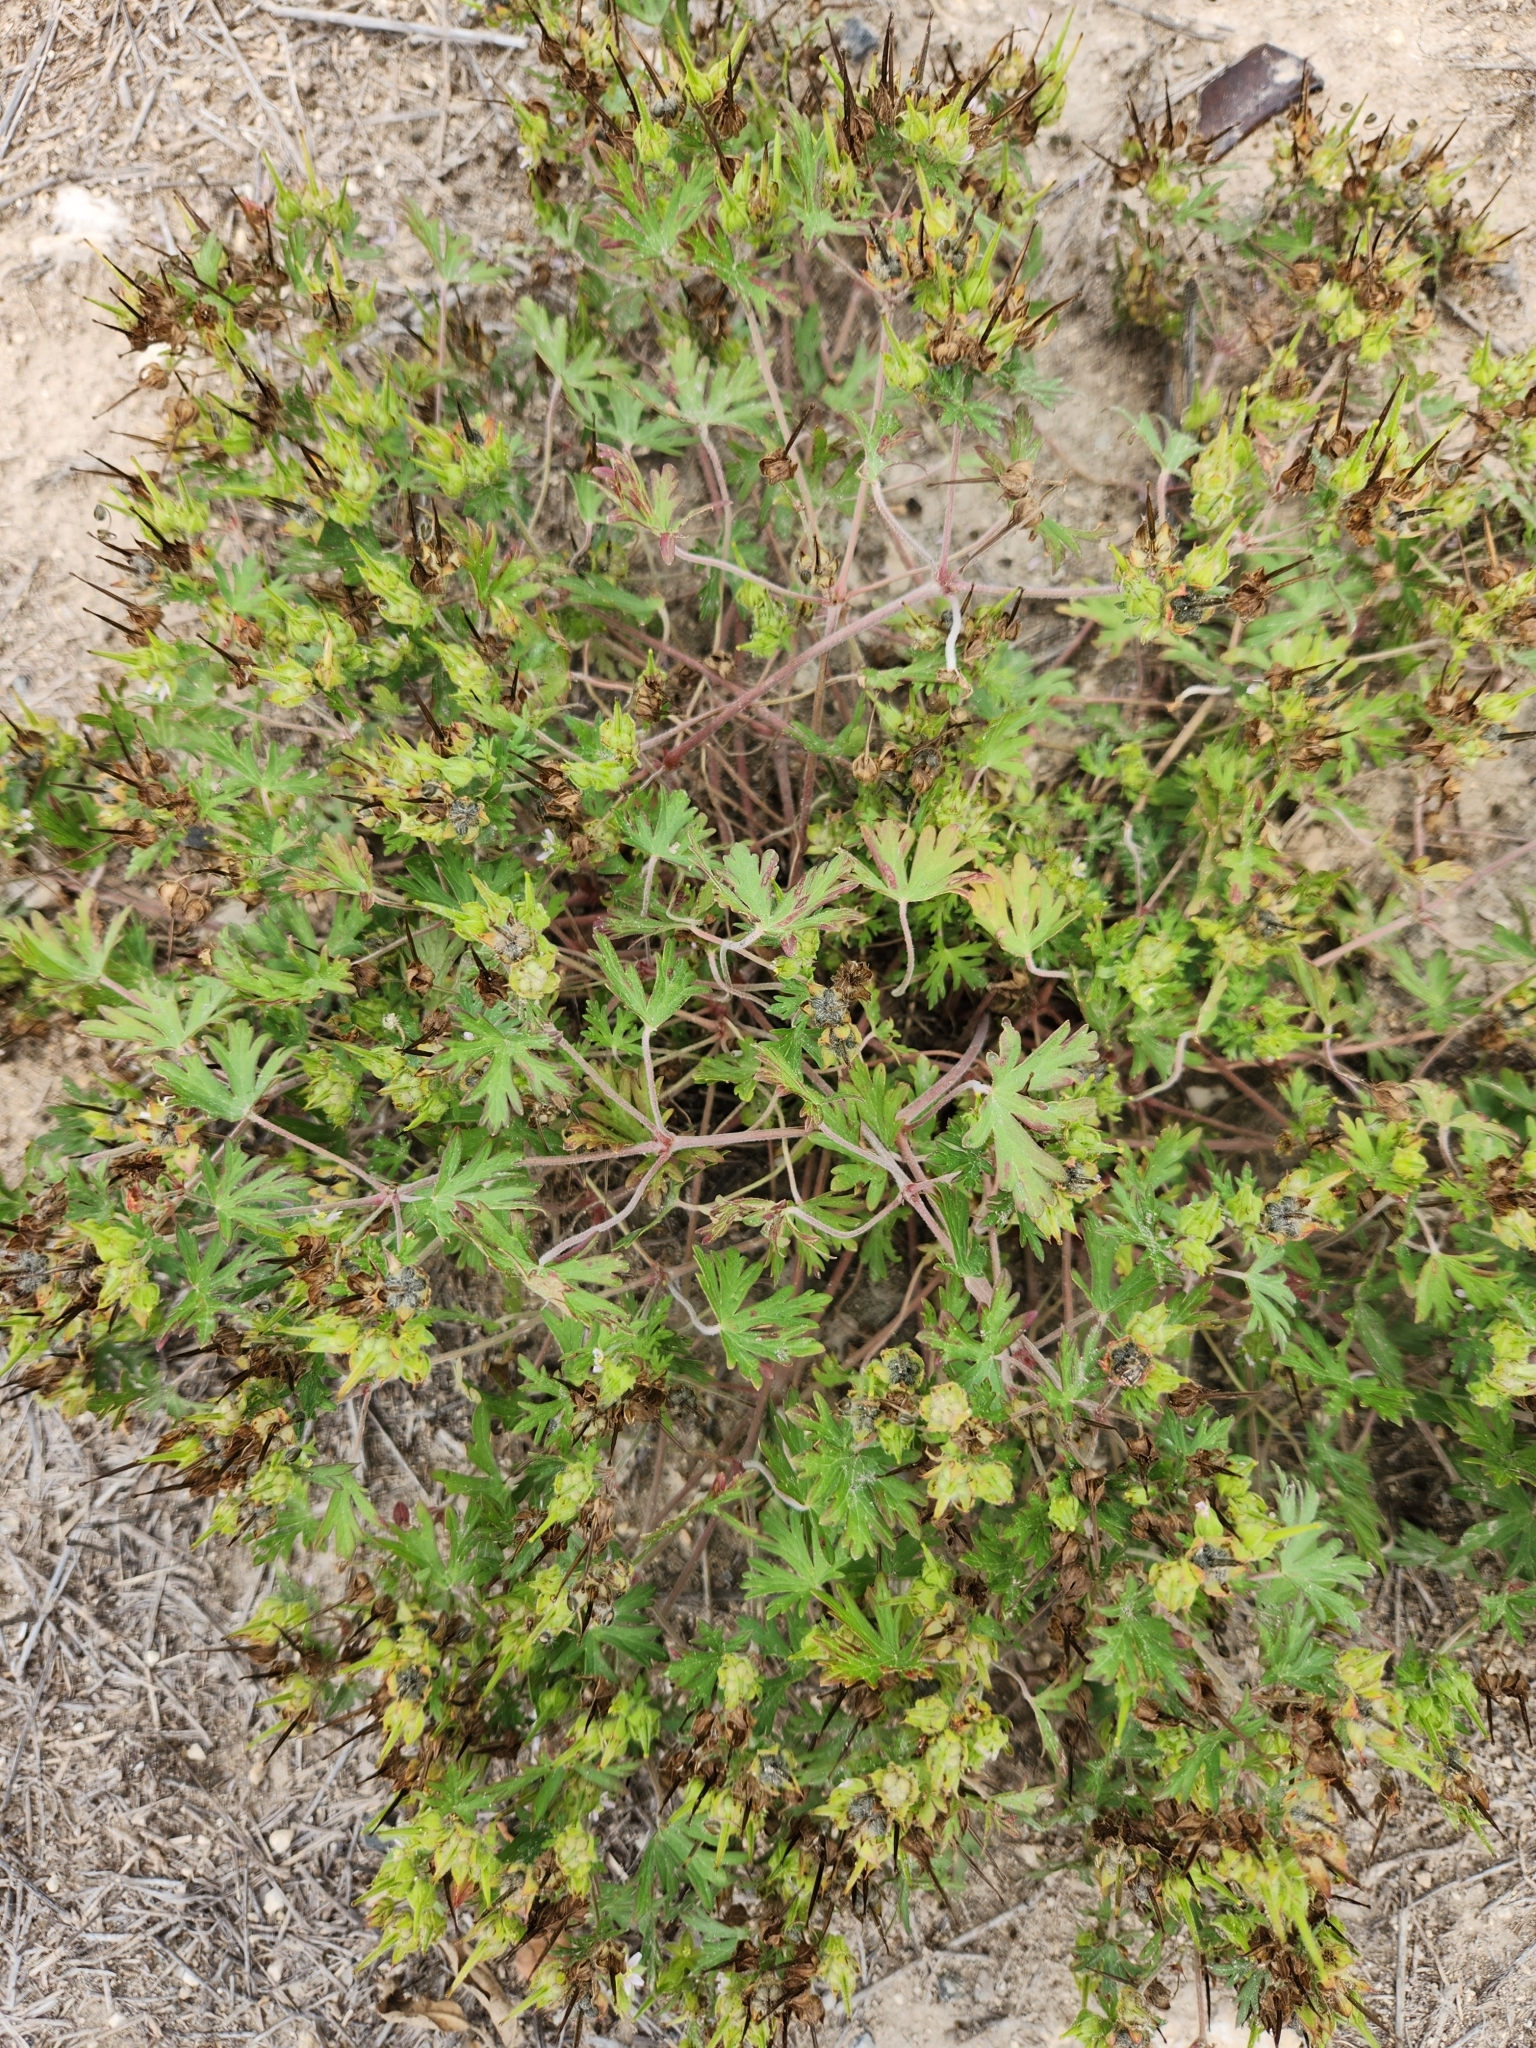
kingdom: Plantae
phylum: Tracheophyta
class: Magnoliopsida
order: Geraniales
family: Geraniaceae
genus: Geranium
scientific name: Geranium carolinianum
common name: Carolina crane's-bill
